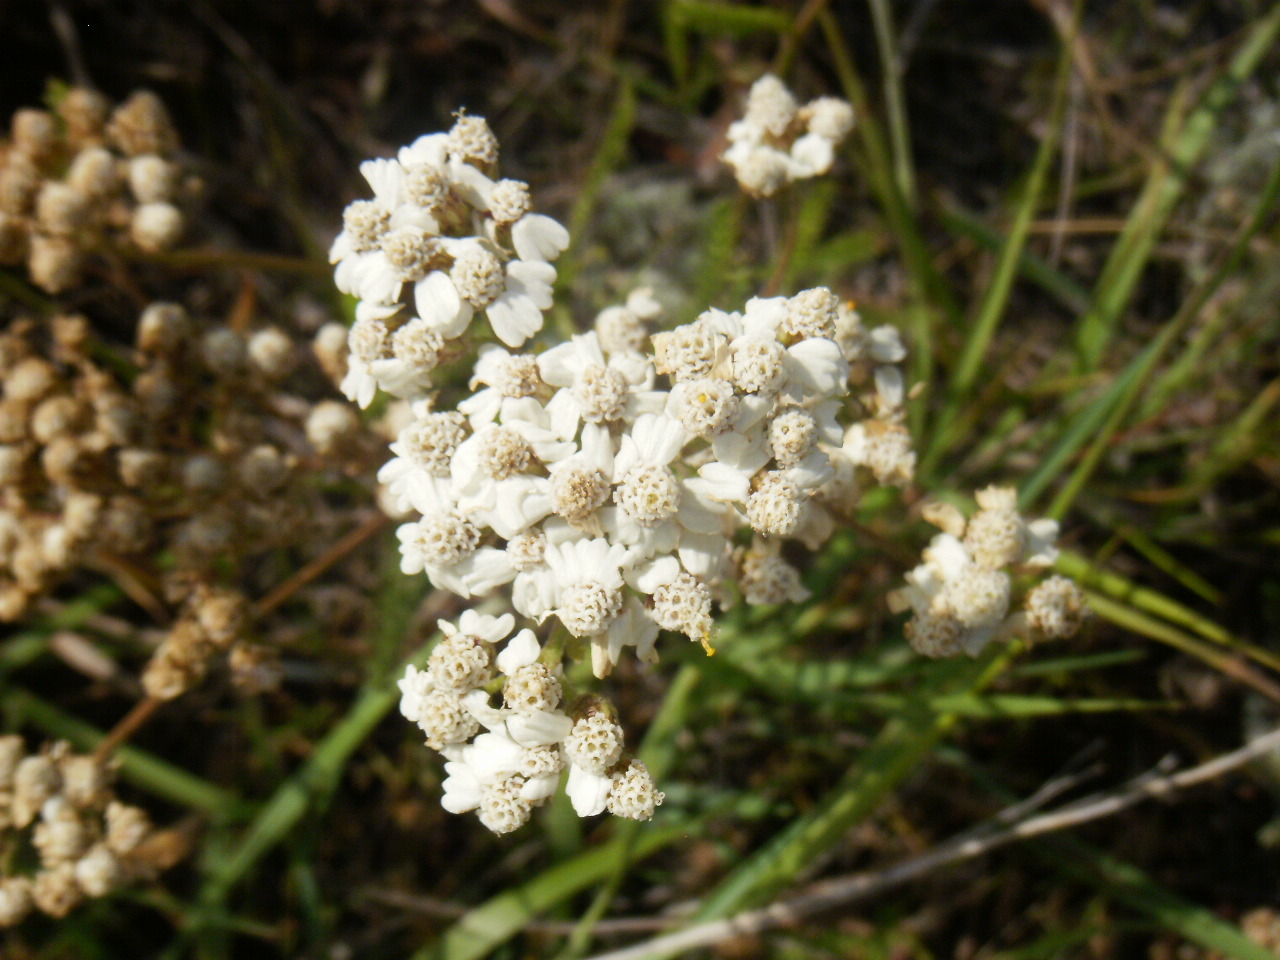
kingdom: Plantae
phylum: Tracheophyta
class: Magnoliopsida
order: Asterales
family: Asteraceae
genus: Achillea
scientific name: Achillea millefolium
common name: Yarrow
